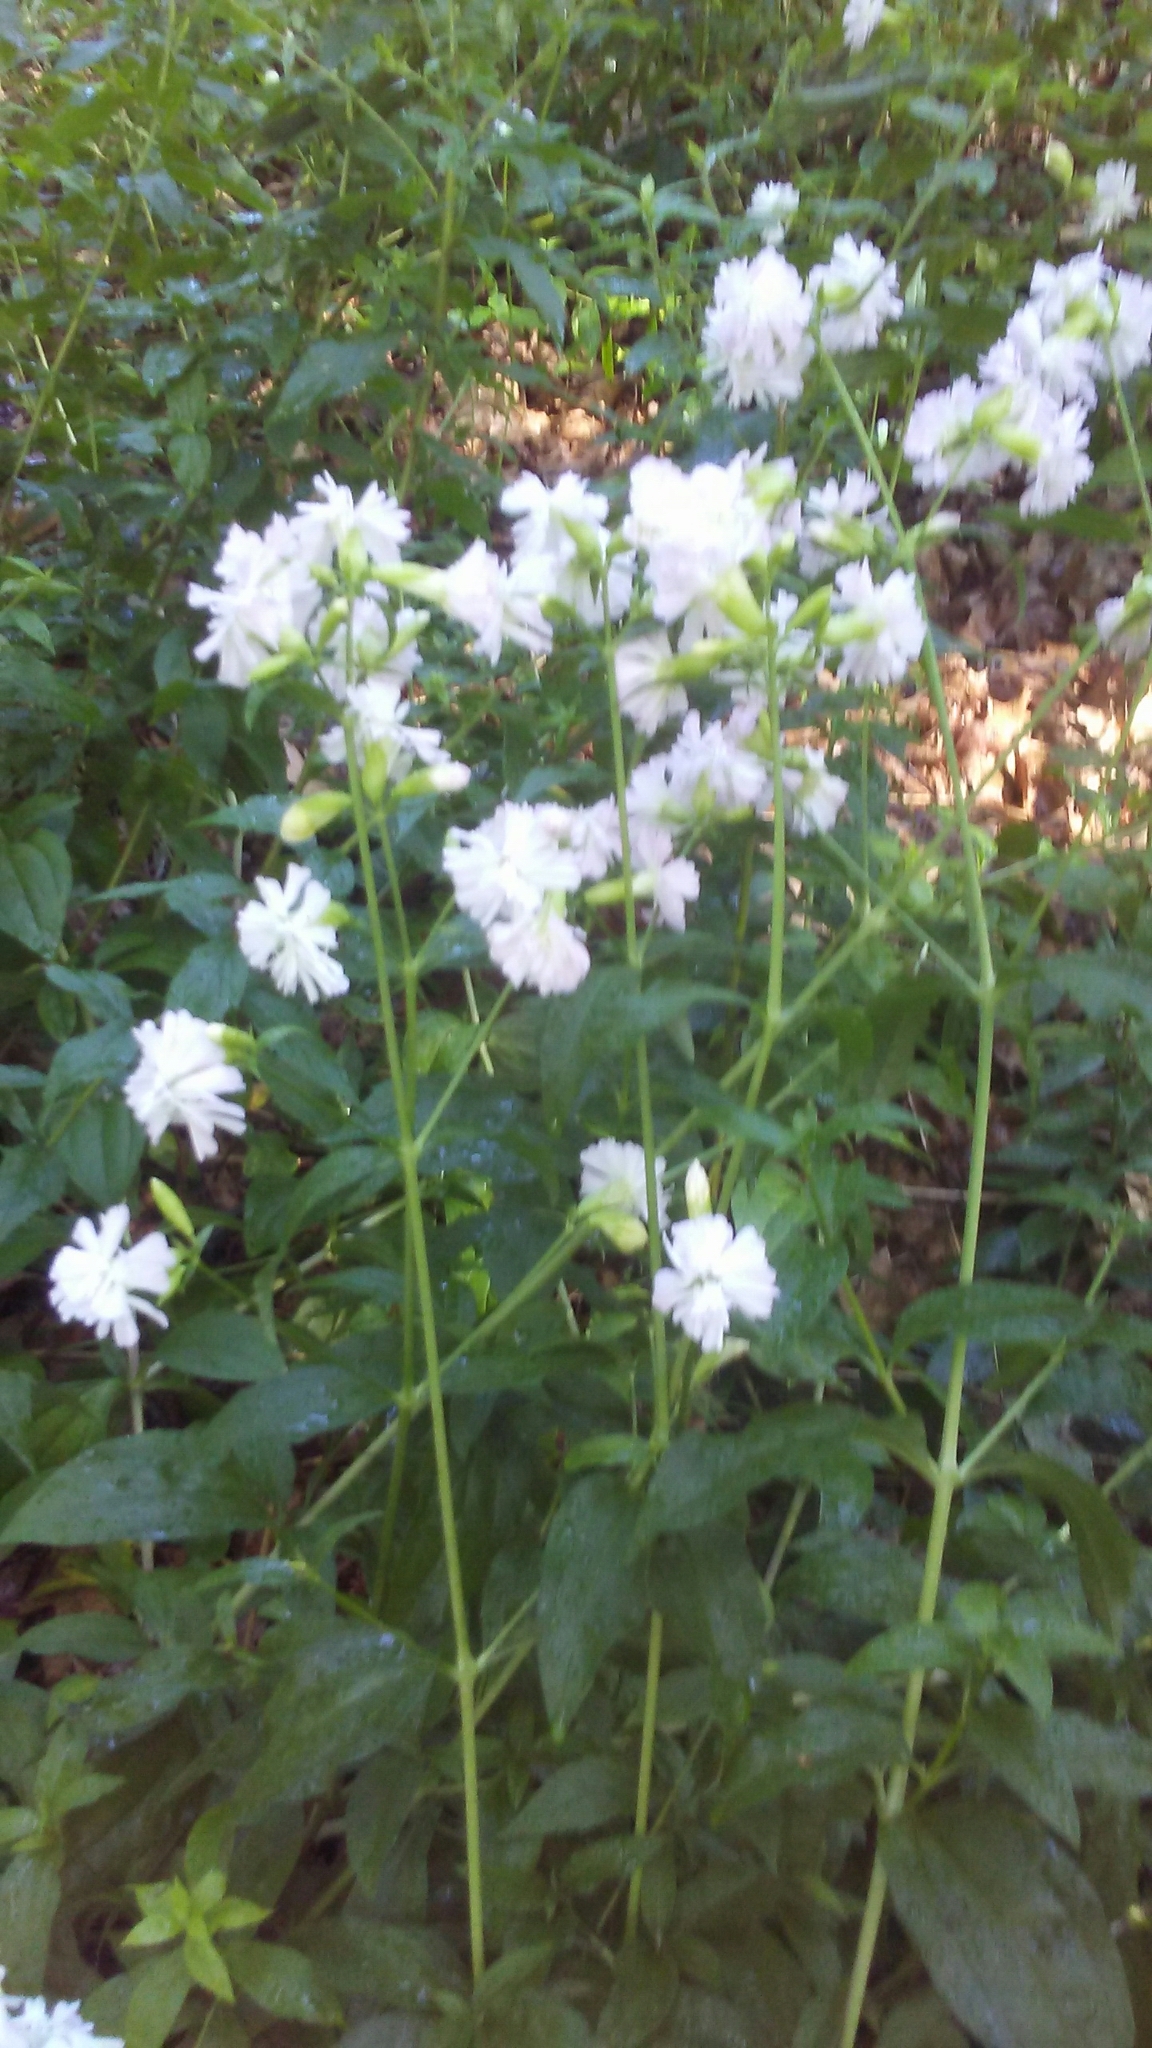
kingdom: Plantae
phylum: Tracheophyta
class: Magnoliopsida
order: Caryophyllales
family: Caryophyllaceae
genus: Saponaria
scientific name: Saponaria officinalis
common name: Soapwort
